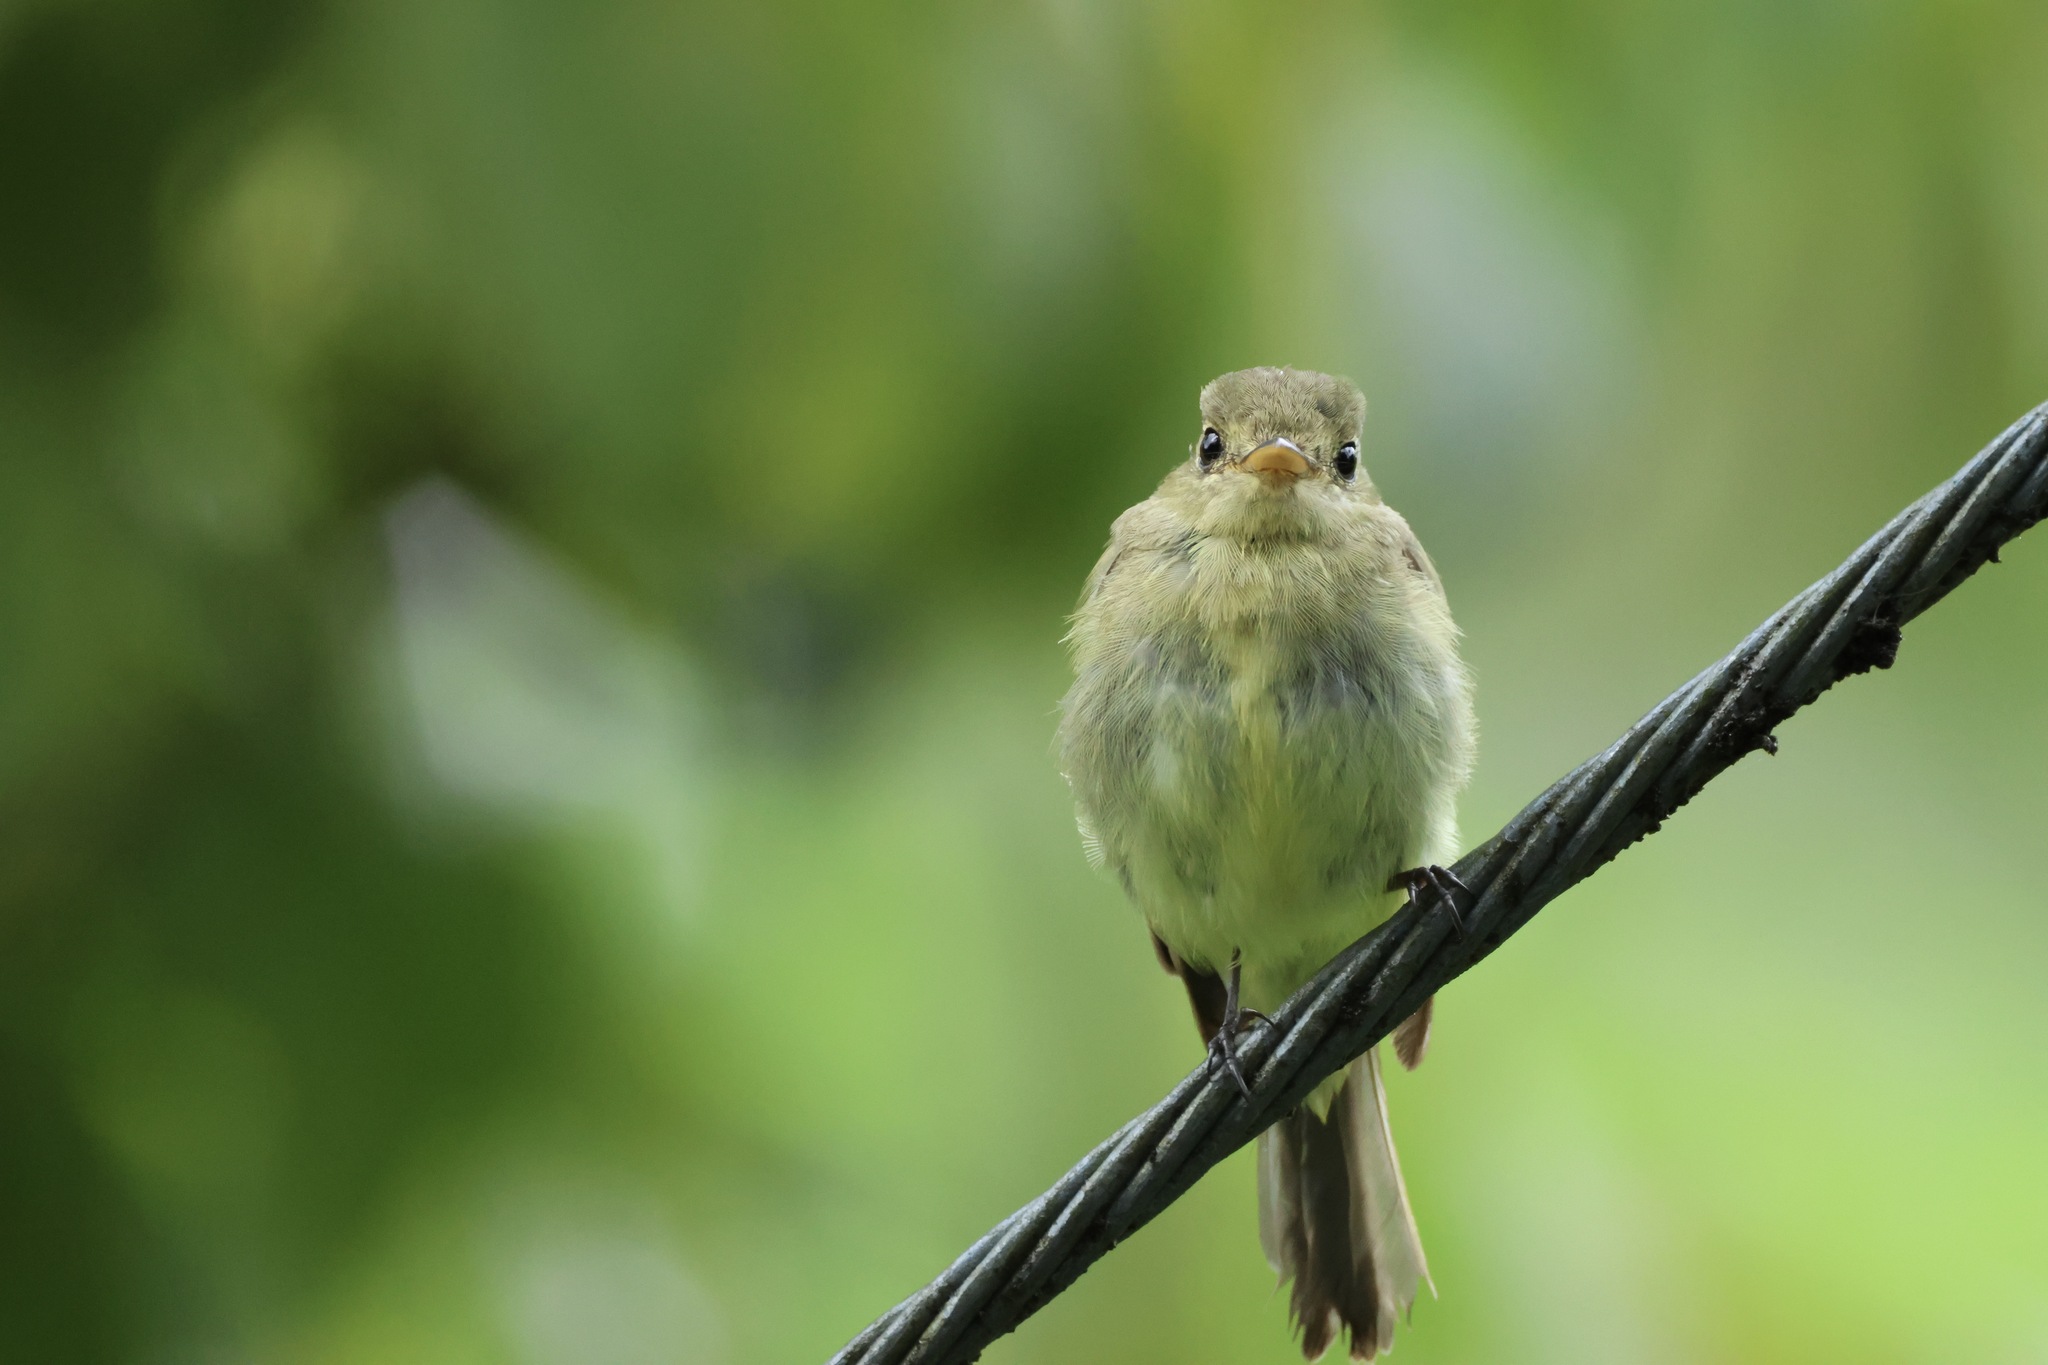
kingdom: Animalia
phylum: Chordata
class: Aves
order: Passeriformes
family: Tyrannidae
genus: Empidonax
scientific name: Empidonax flaviventris
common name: Yellow-bellied flycatcher
